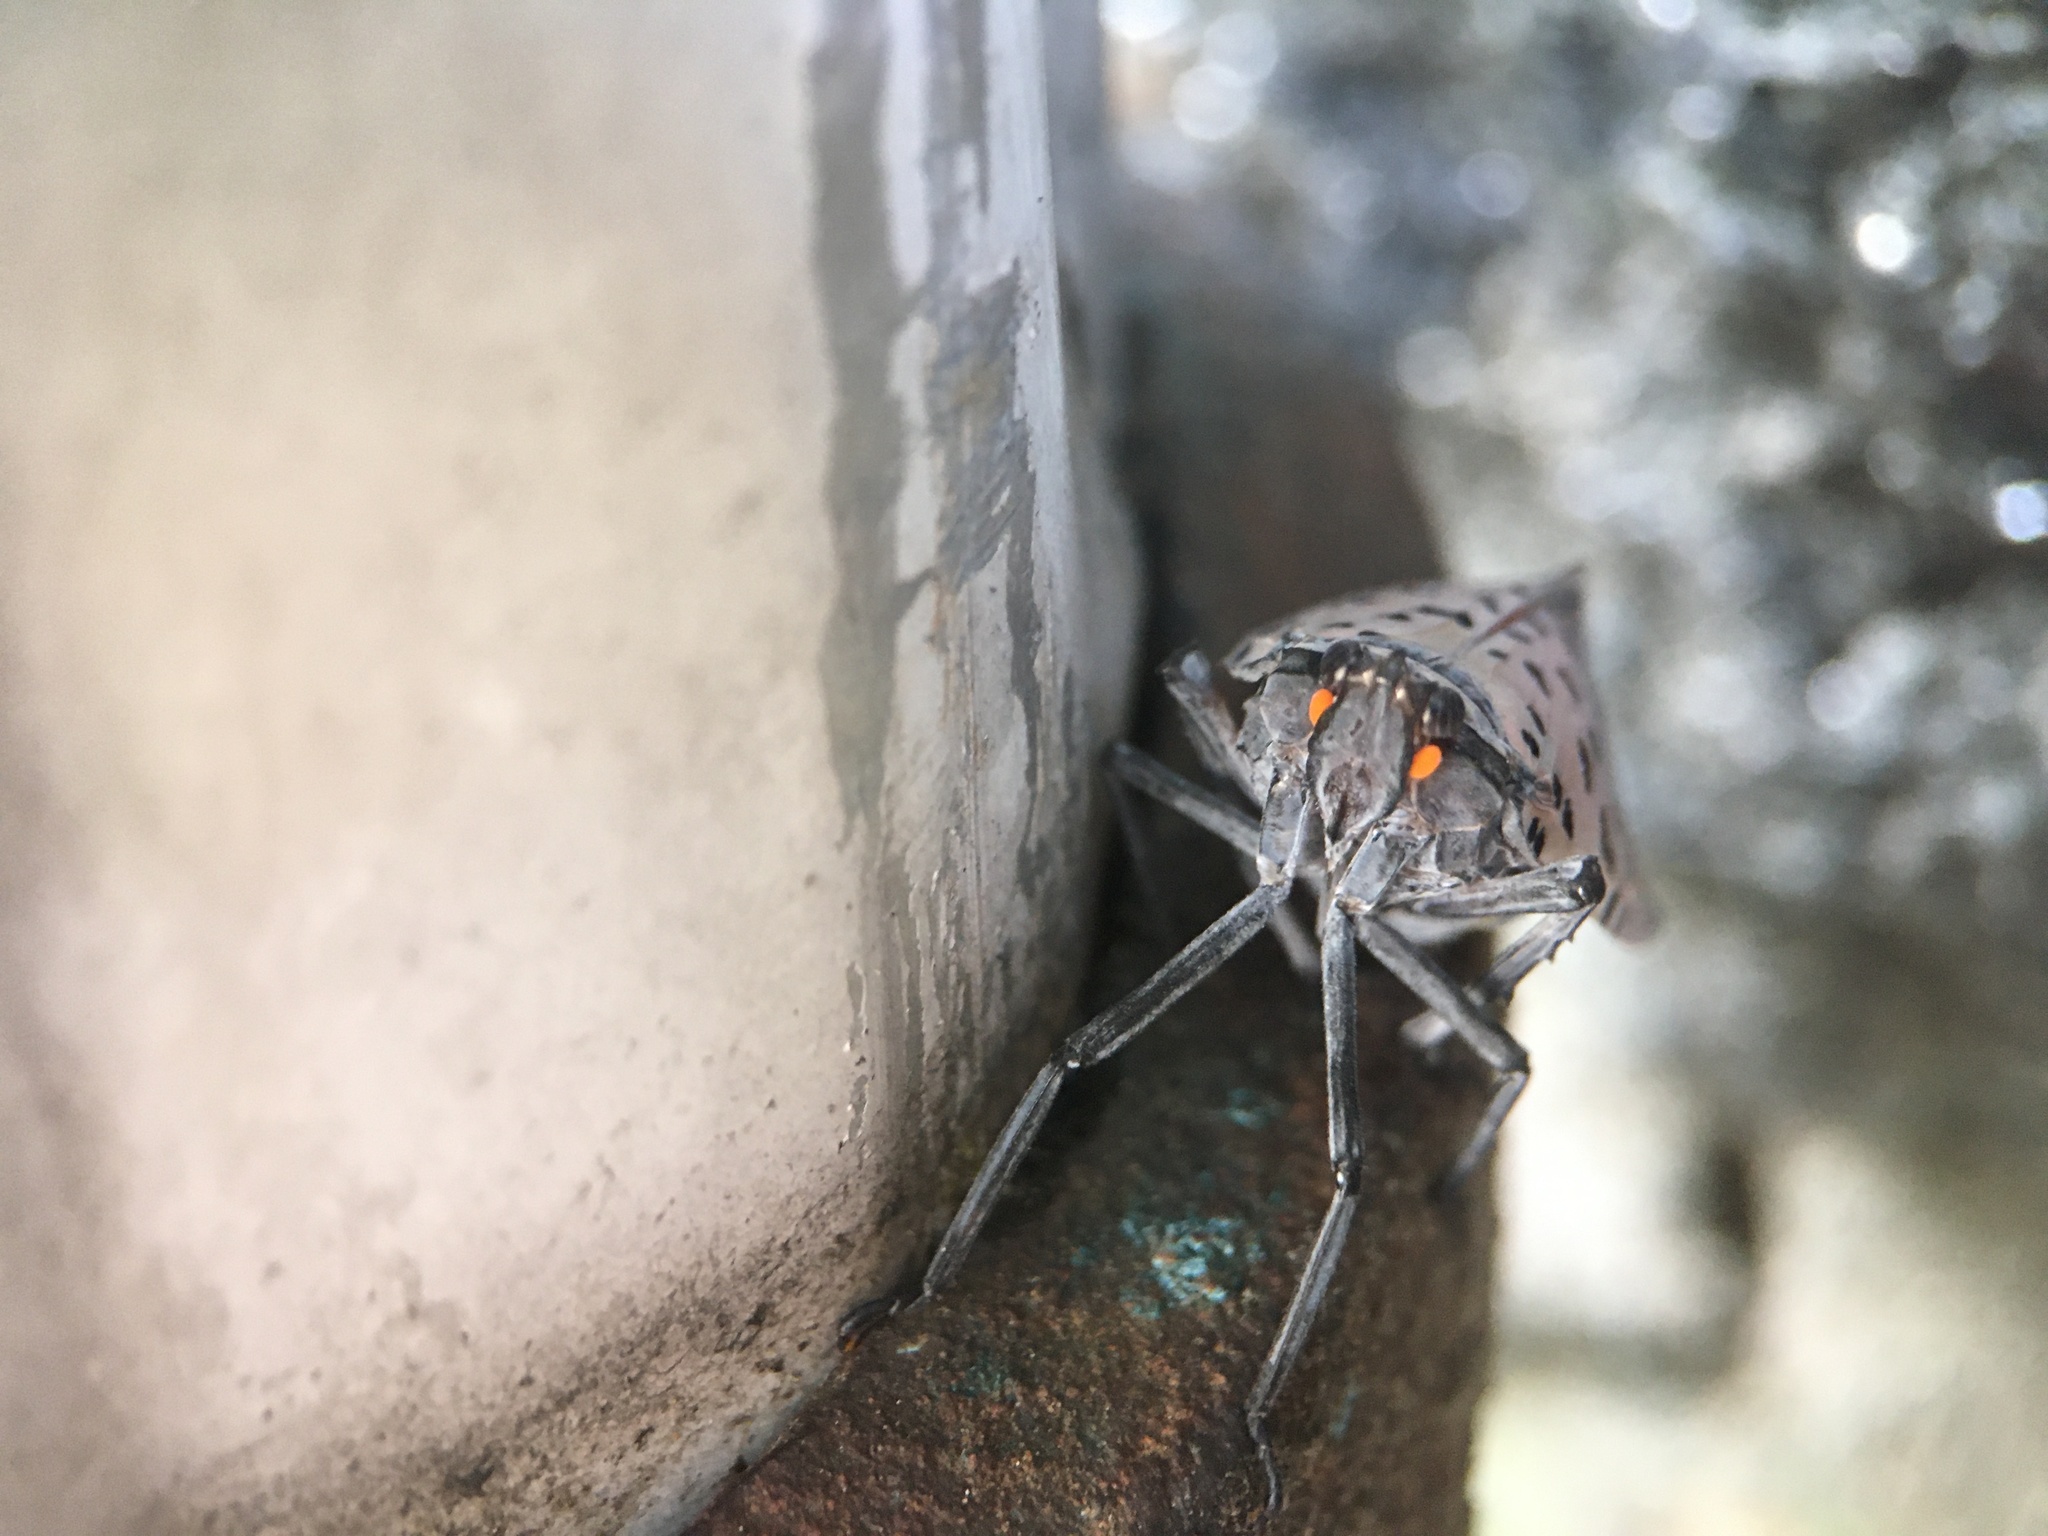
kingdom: Animalia
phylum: Arthropoda
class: Insecta
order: Hemiptera
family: Fulgoridae
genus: Lycorma
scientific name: Lycorma delicatula
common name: Spotted lanternfly
